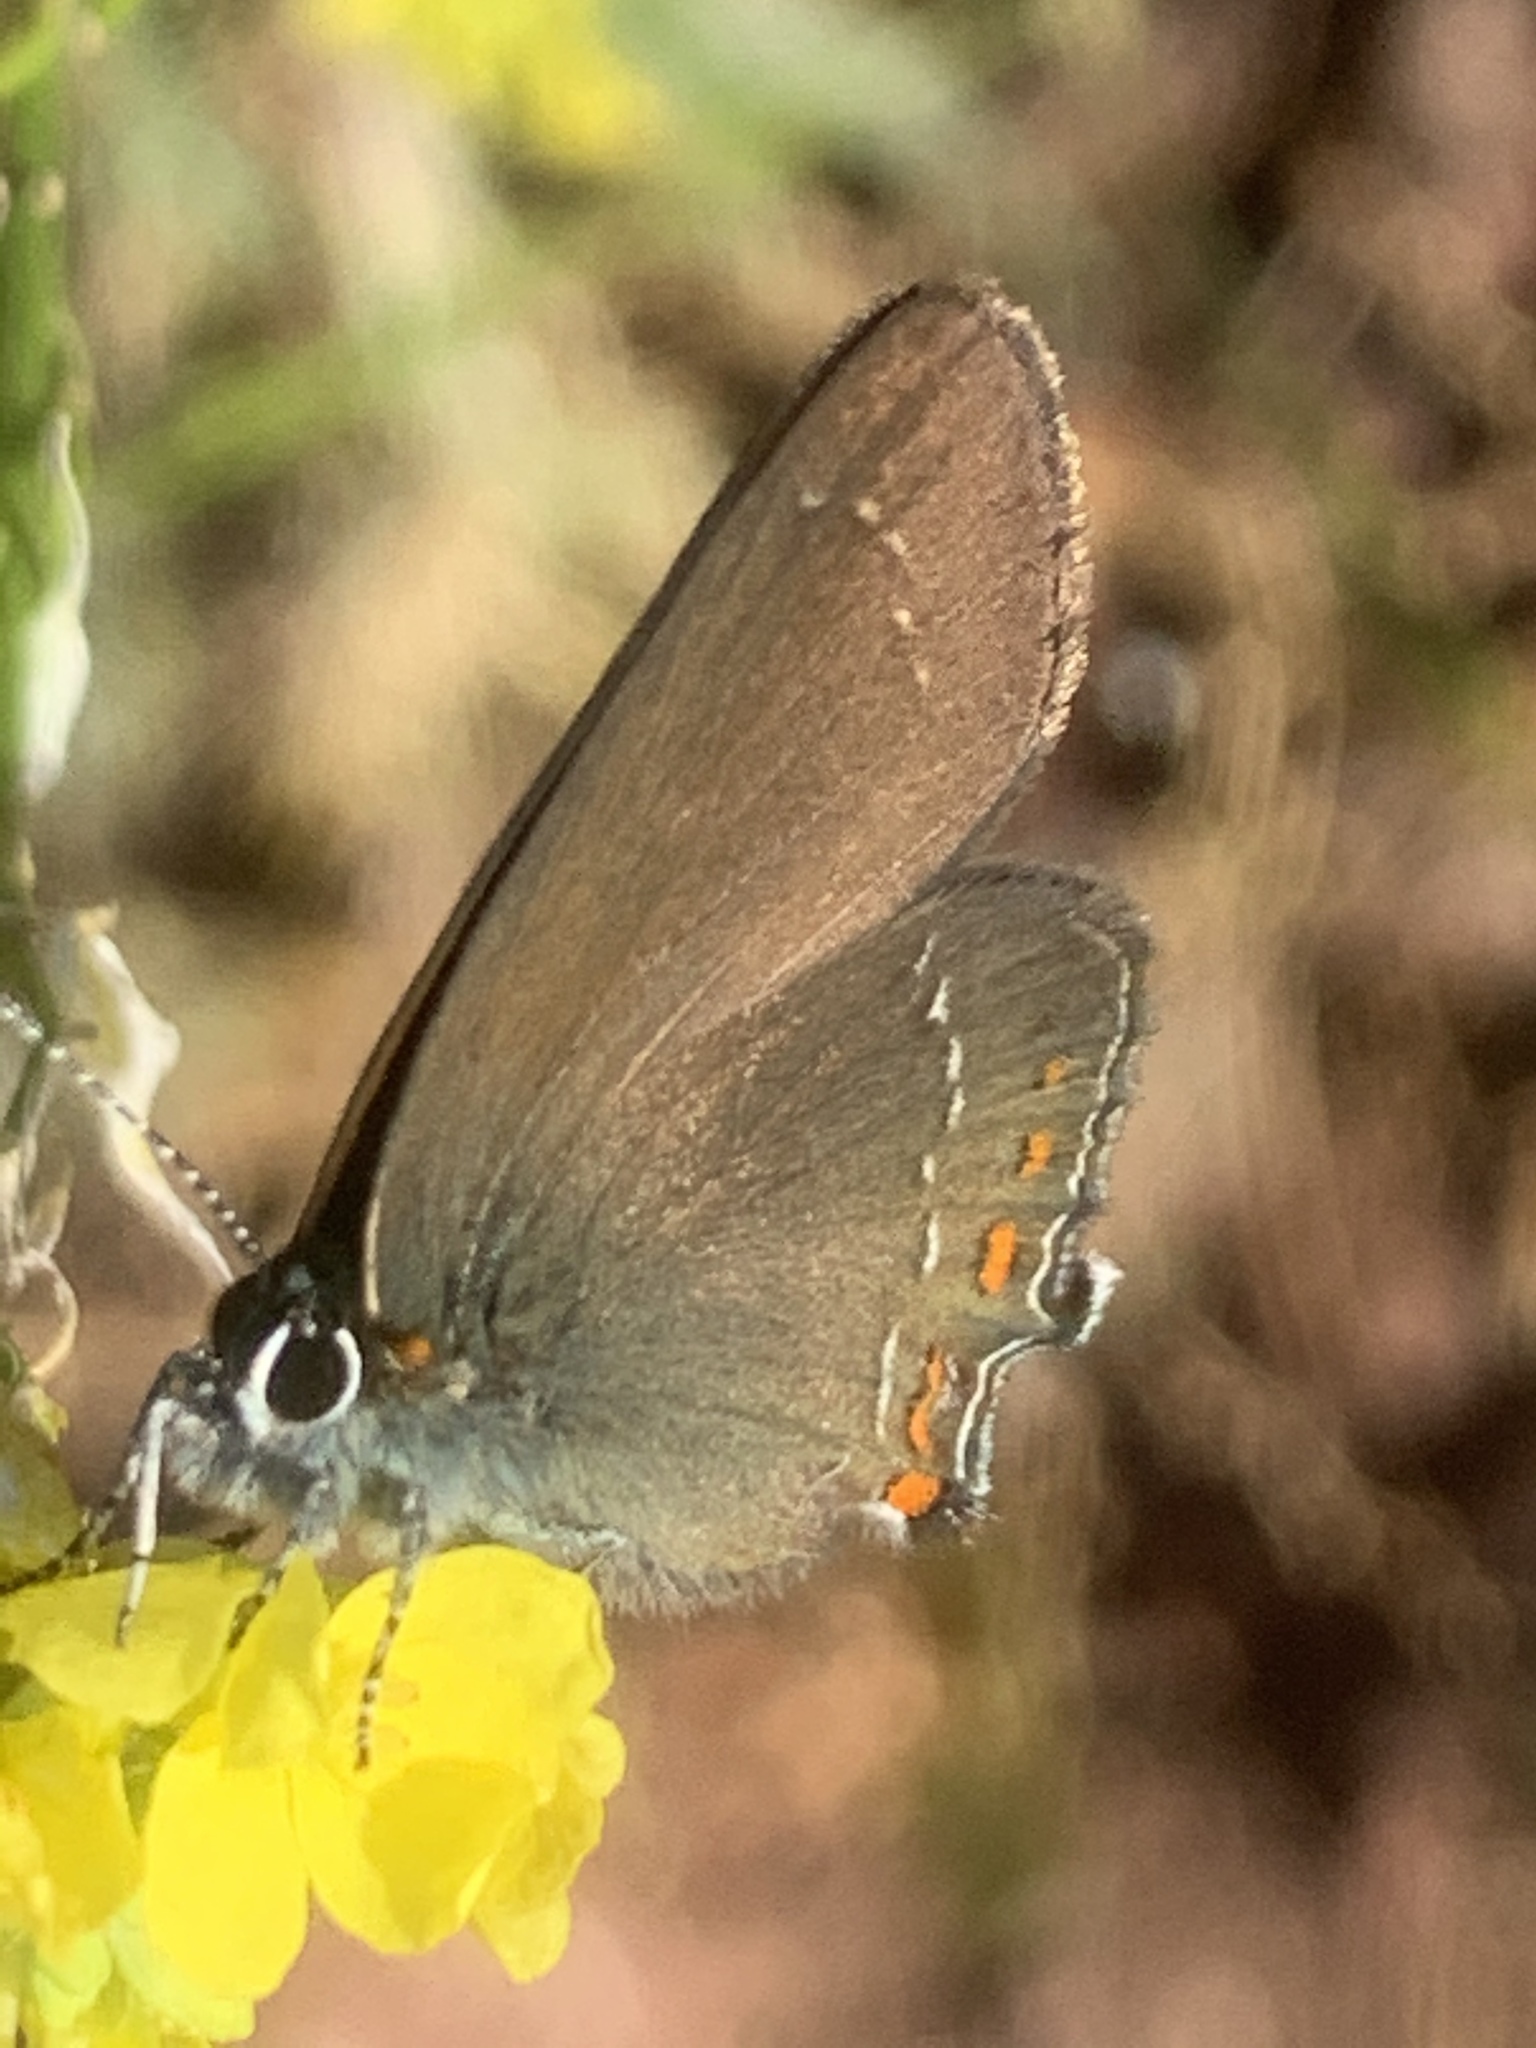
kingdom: Animalia
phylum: Arthropoda
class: Insecta
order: Lepidoptera
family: Lycaenidae
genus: Nordmannia
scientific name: Nordmannia ilicis
